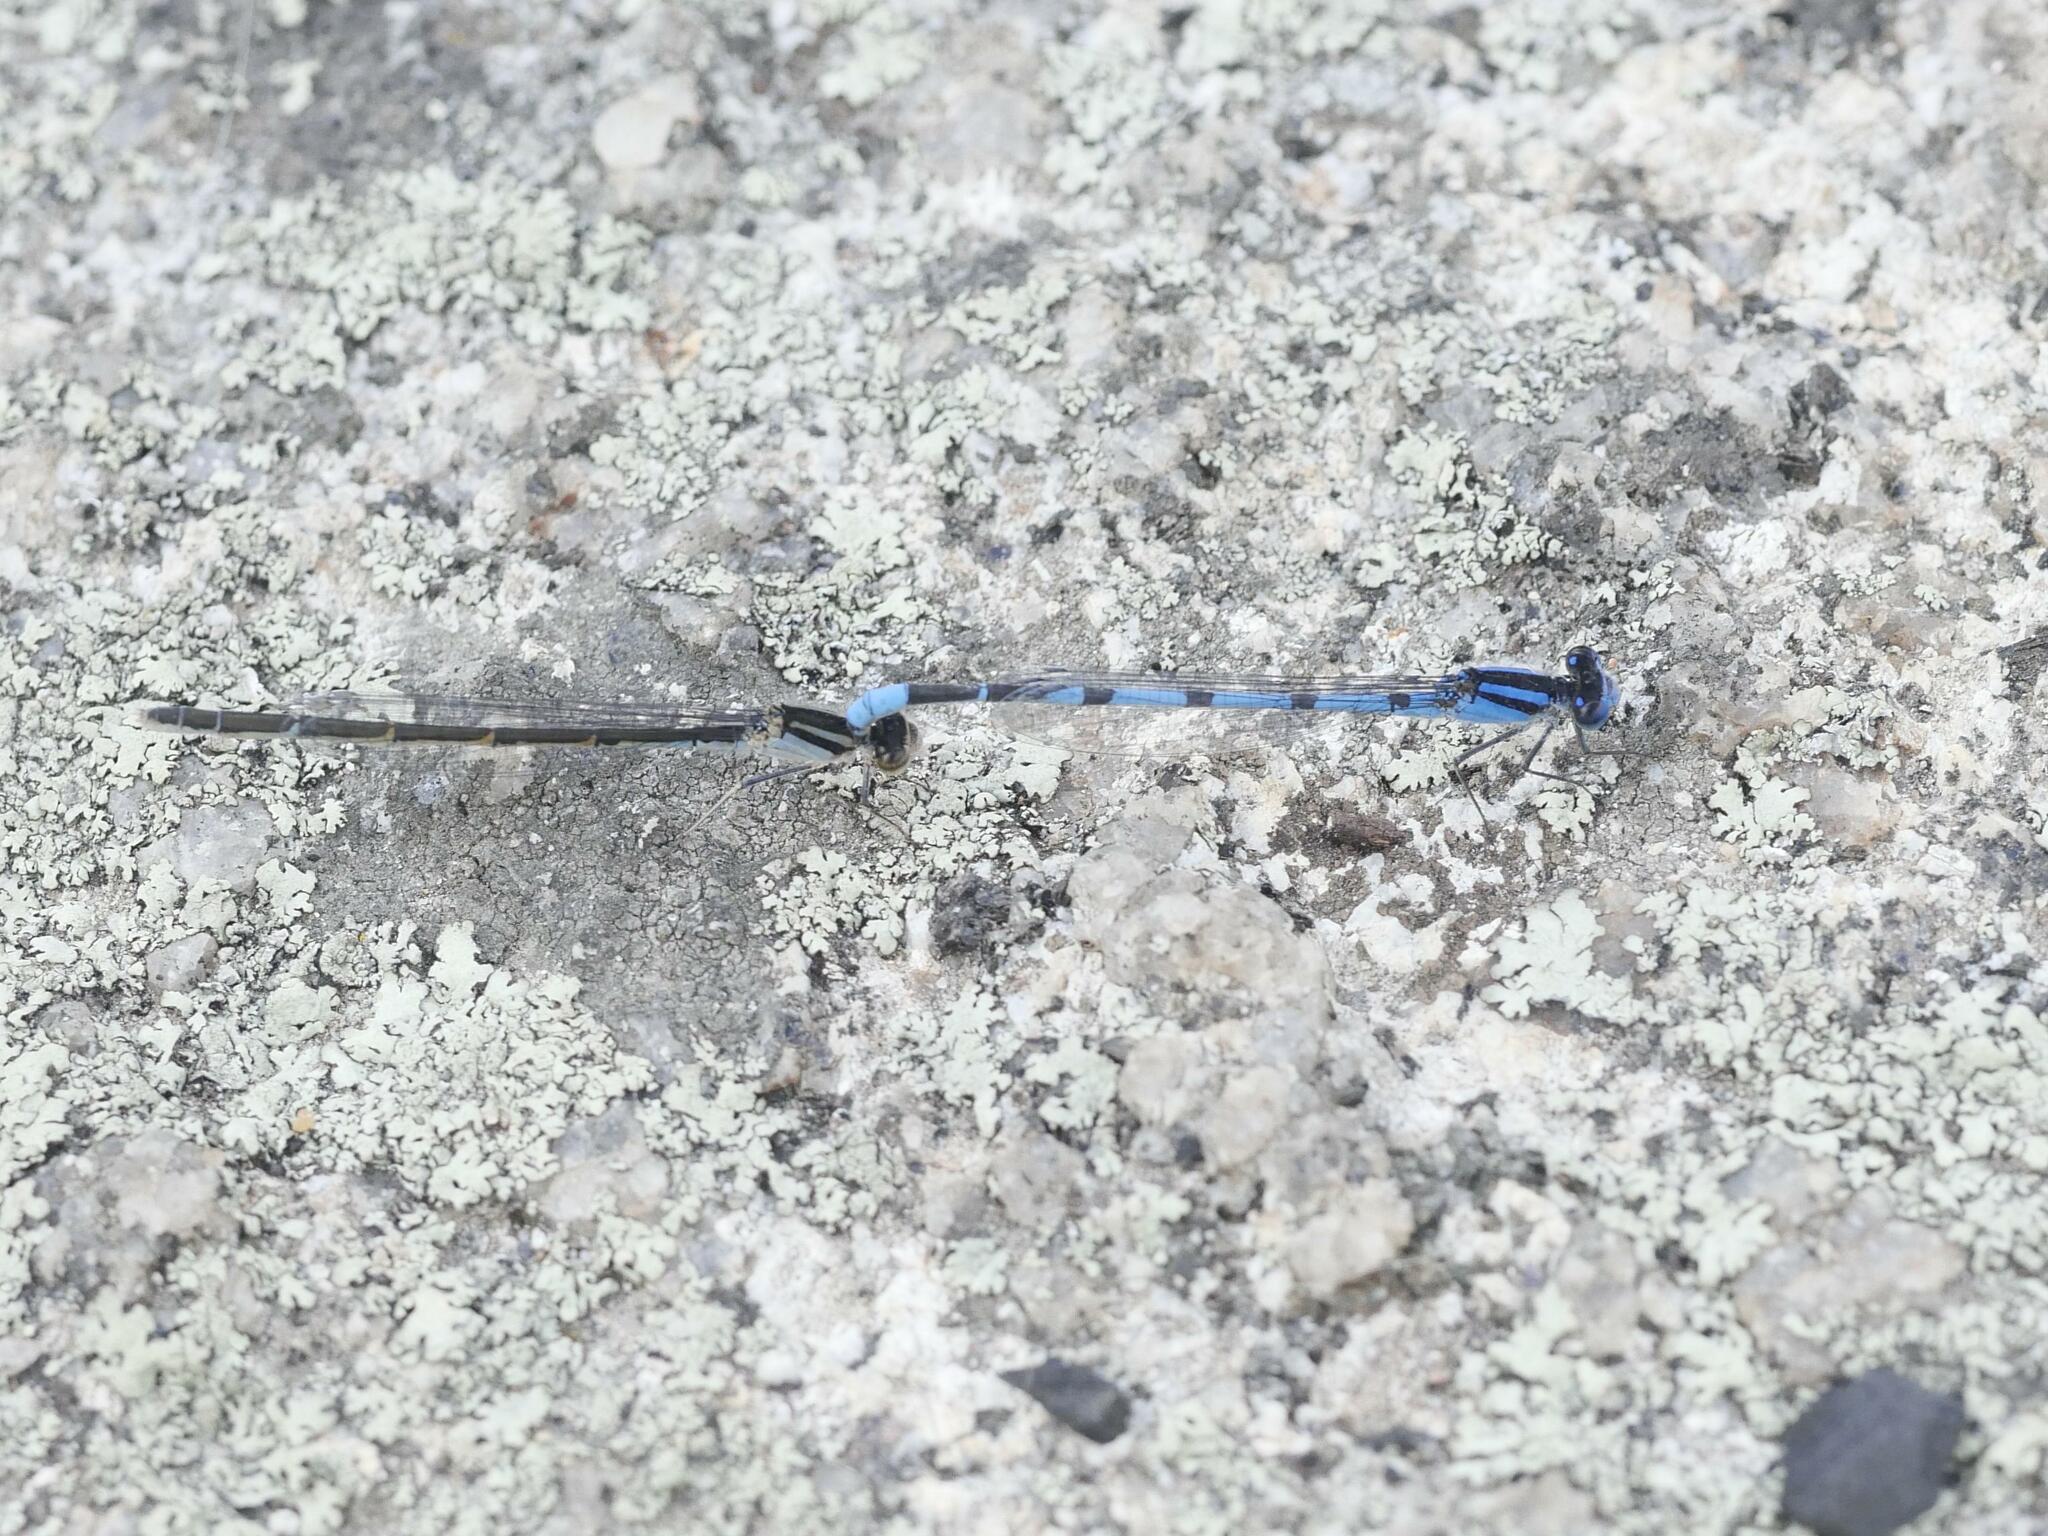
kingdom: Animalia
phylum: Arthropoda
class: Insecta
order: Odonata
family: Coenagrionidae
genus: Enallagma
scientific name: Enallagma civile
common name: Damselfly
